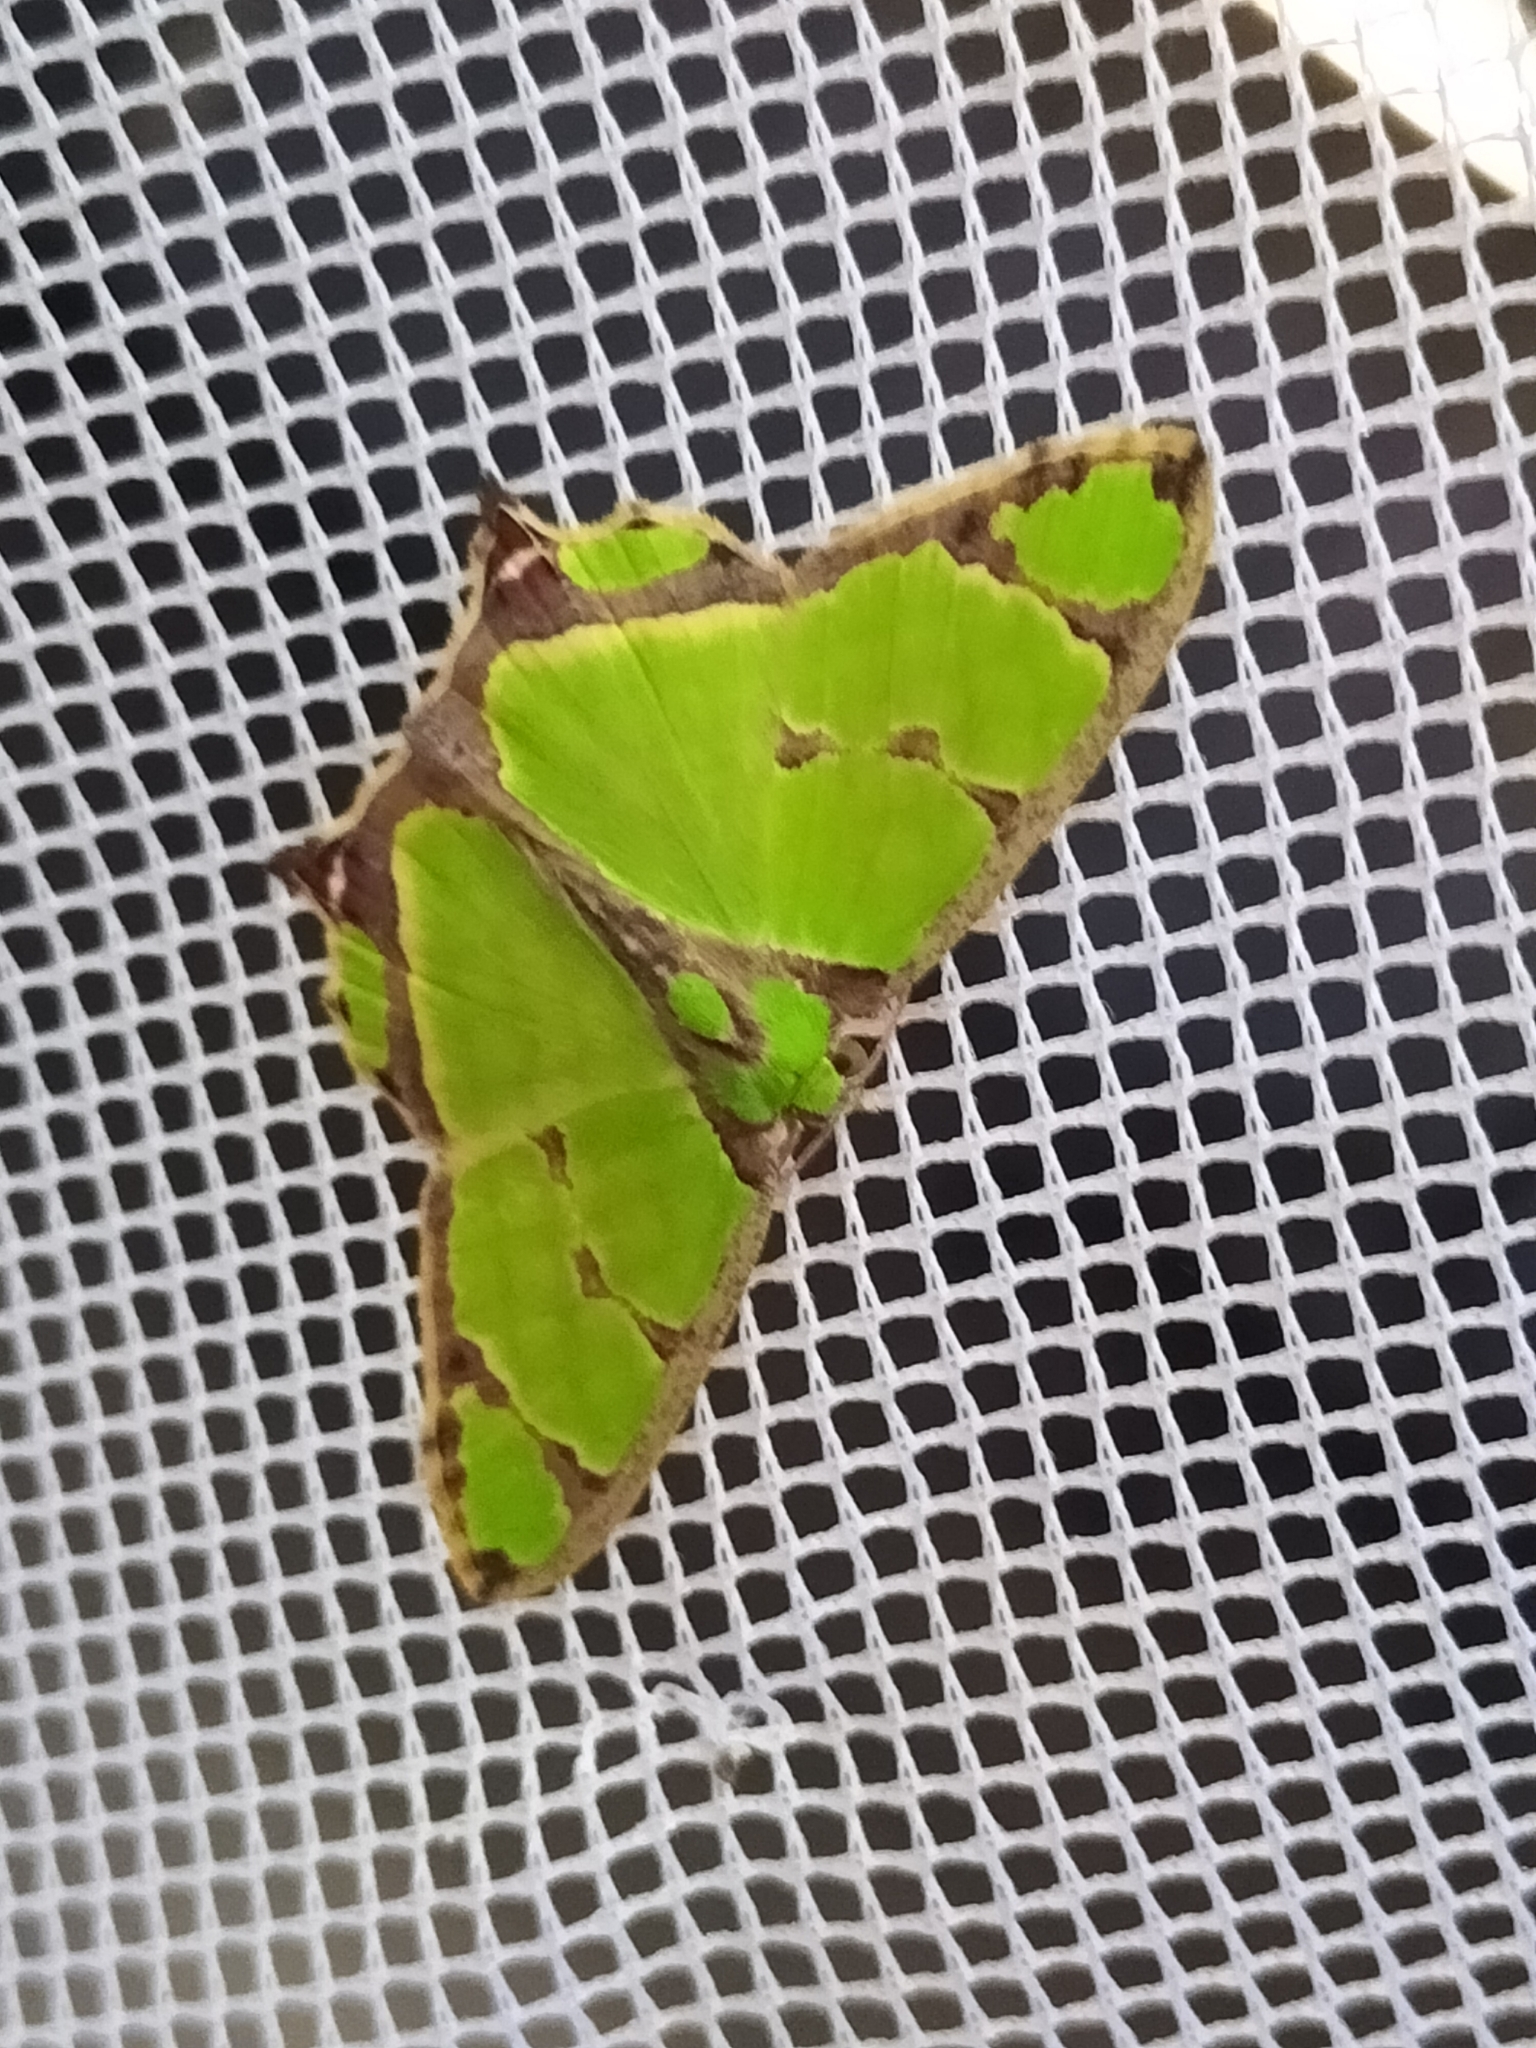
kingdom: Animalia
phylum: Arthropoda
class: Insecta
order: Lepidoptera
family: Geometridae
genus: Agathia
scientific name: Agathia pisina
